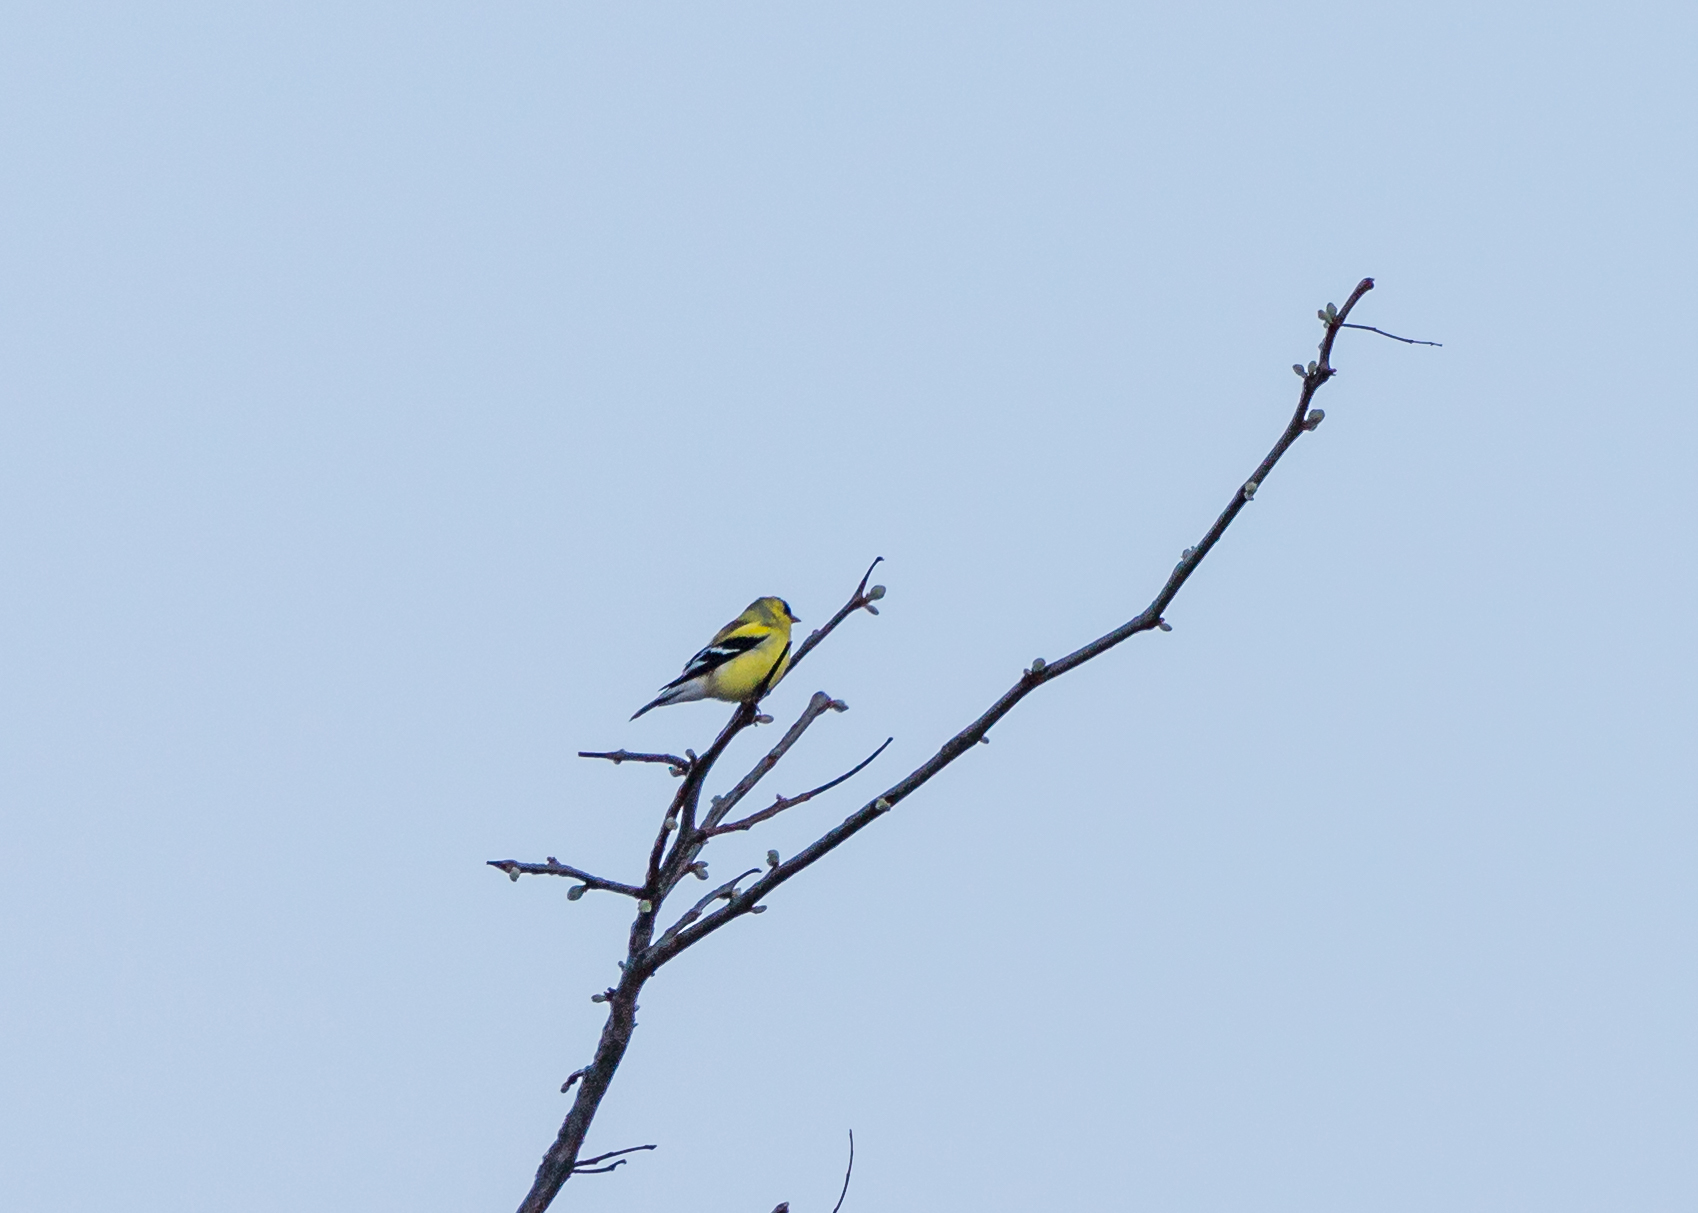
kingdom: Animalia
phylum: Chordata
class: Aves
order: Passeriformes
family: Fringillidae
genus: Spinus
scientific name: Spinus tristis
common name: American goldfinch
